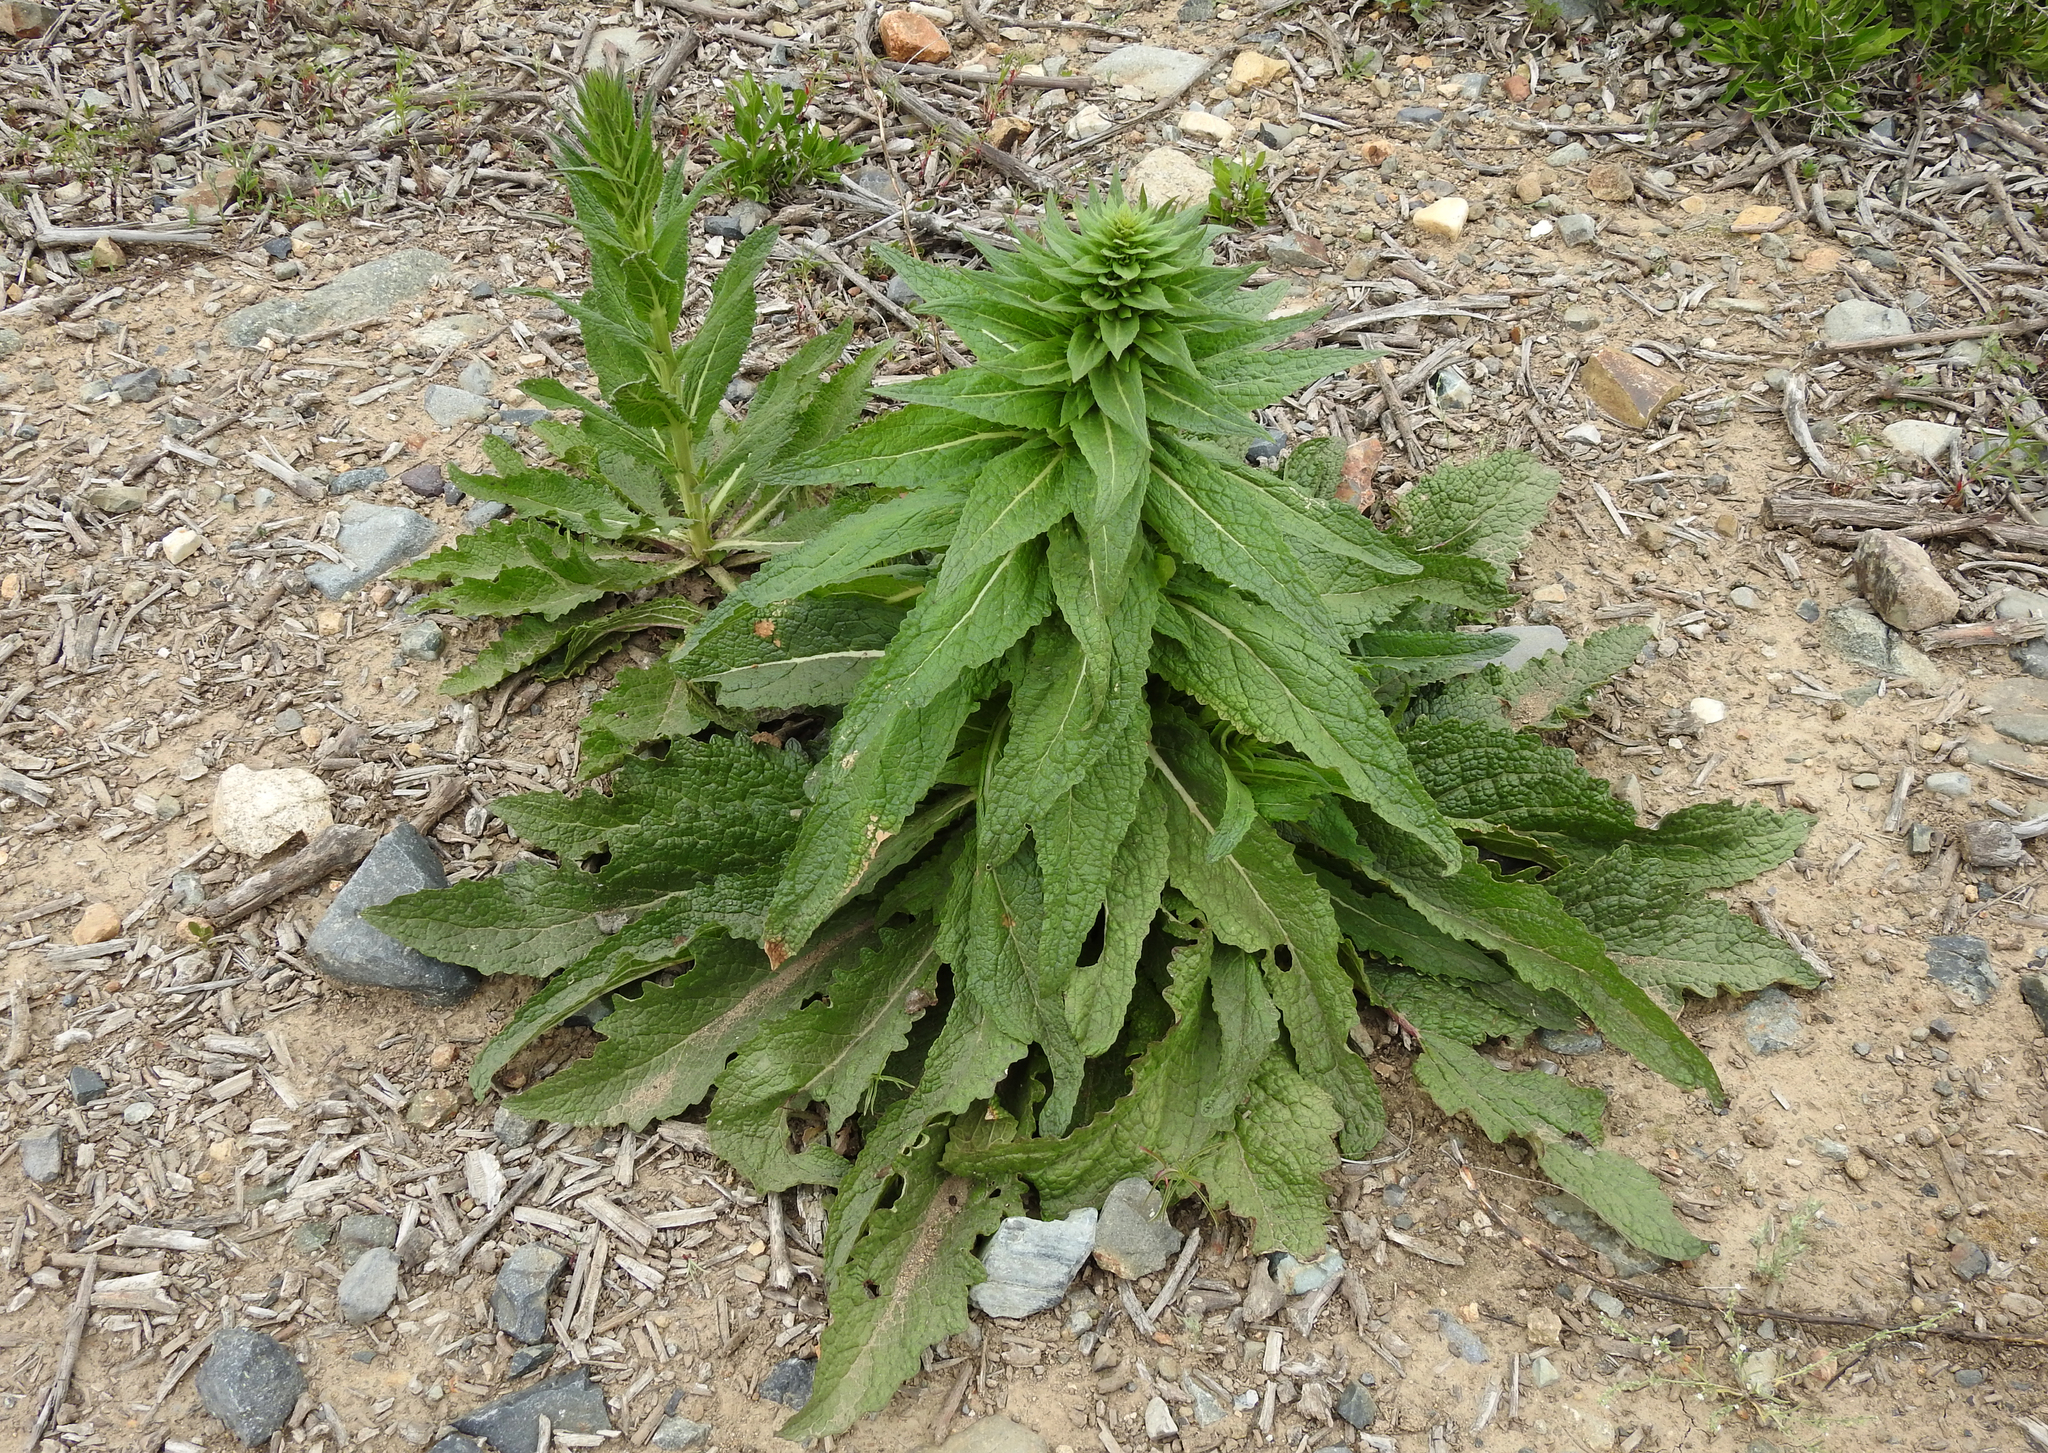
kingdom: Plantae
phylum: Tracheophyta
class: Magnoliopsida
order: Lamiales
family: Scrophulariaceae
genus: Verbascum
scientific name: Verbascum virgatum
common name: Twiggy mullein
